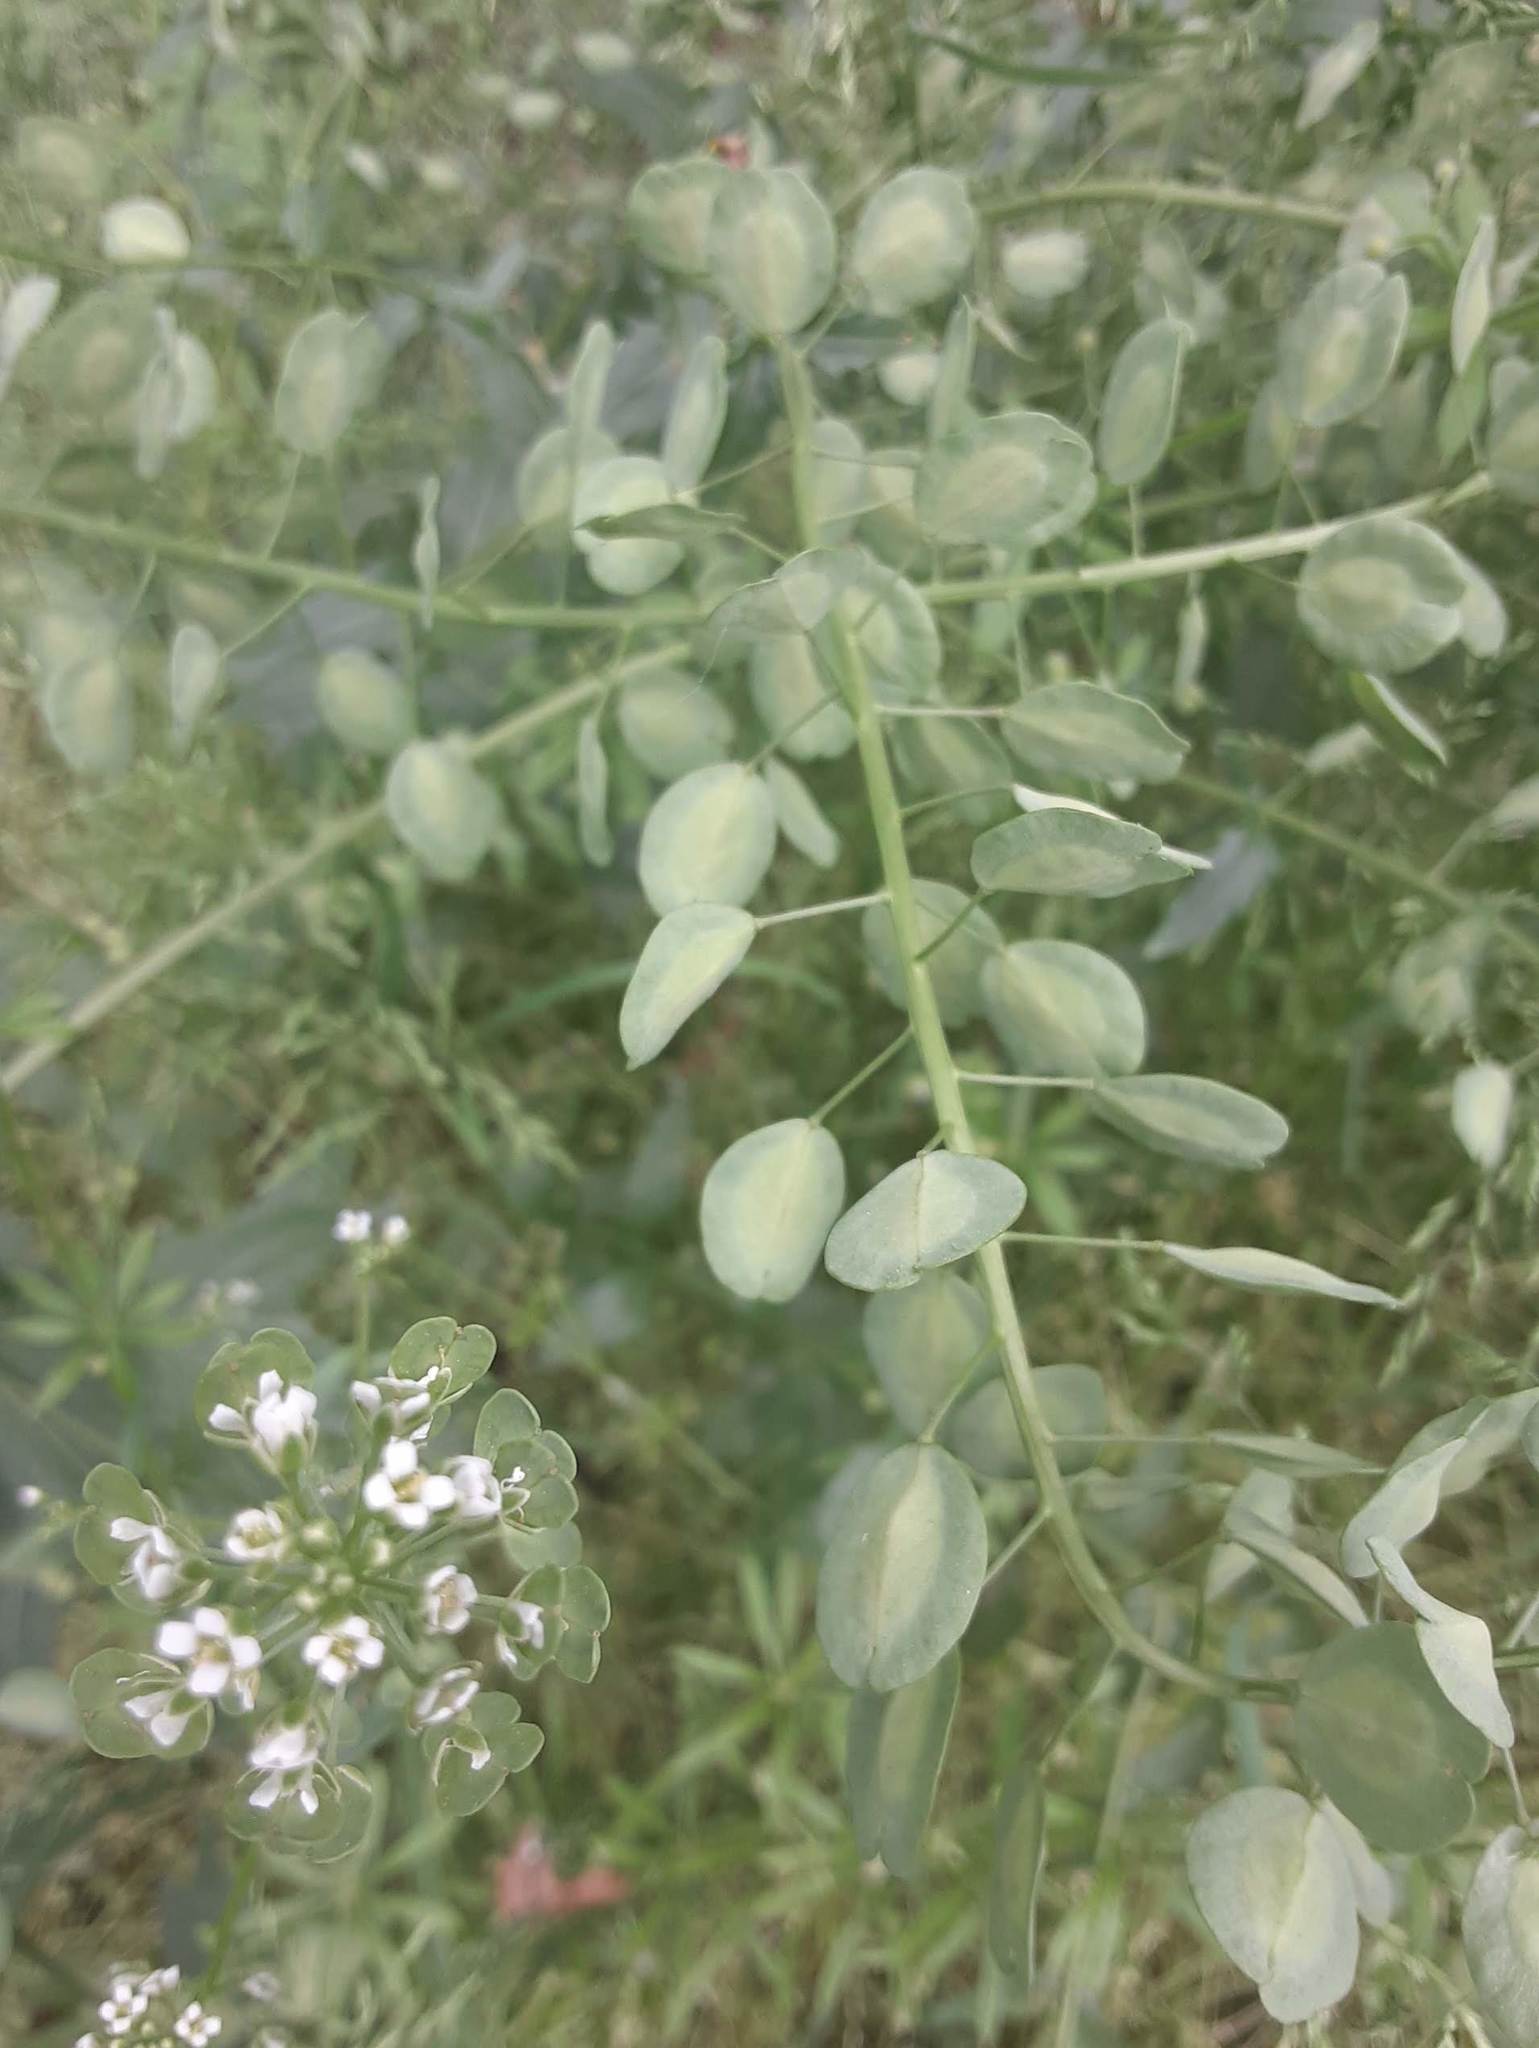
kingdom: Plantae
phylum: Tracheophyta
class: Magnoliopsida
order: Brassicales
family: Brassicaceae
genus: Thlaspi
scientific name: Thlaspi arvense
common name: Field pennycress
